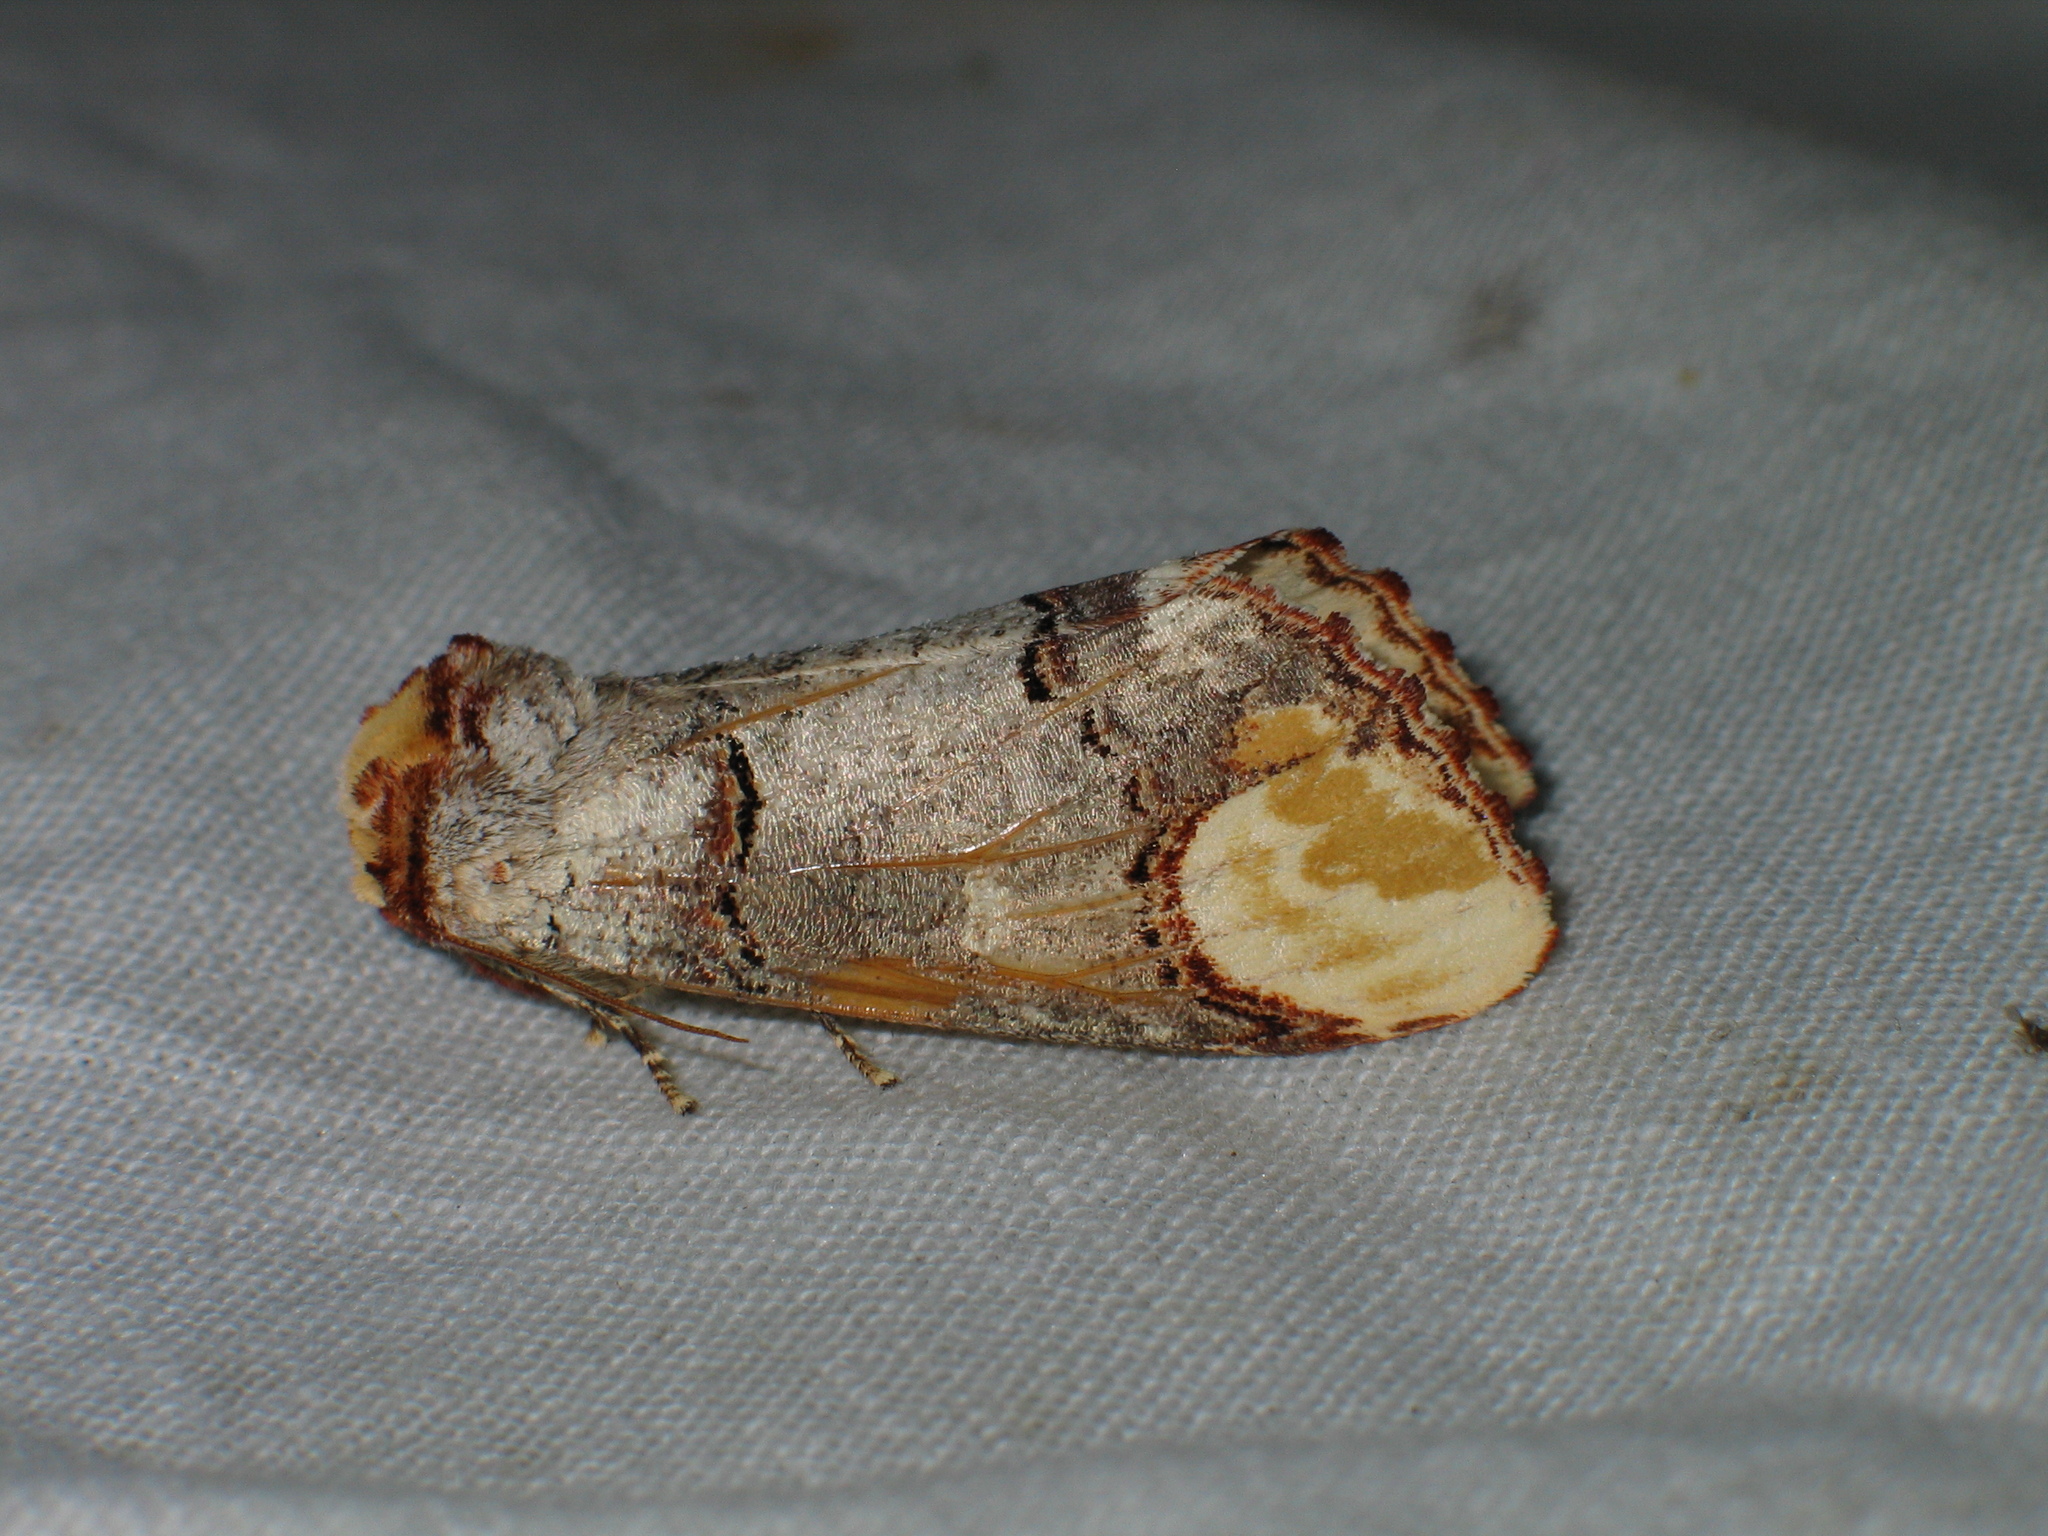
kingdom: Animalia
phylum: Arthropoda
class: Insecta
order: Lepidoptera
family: Notodontidae
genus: Phalera
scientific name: Phalera bucephala
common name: Buff-tip
